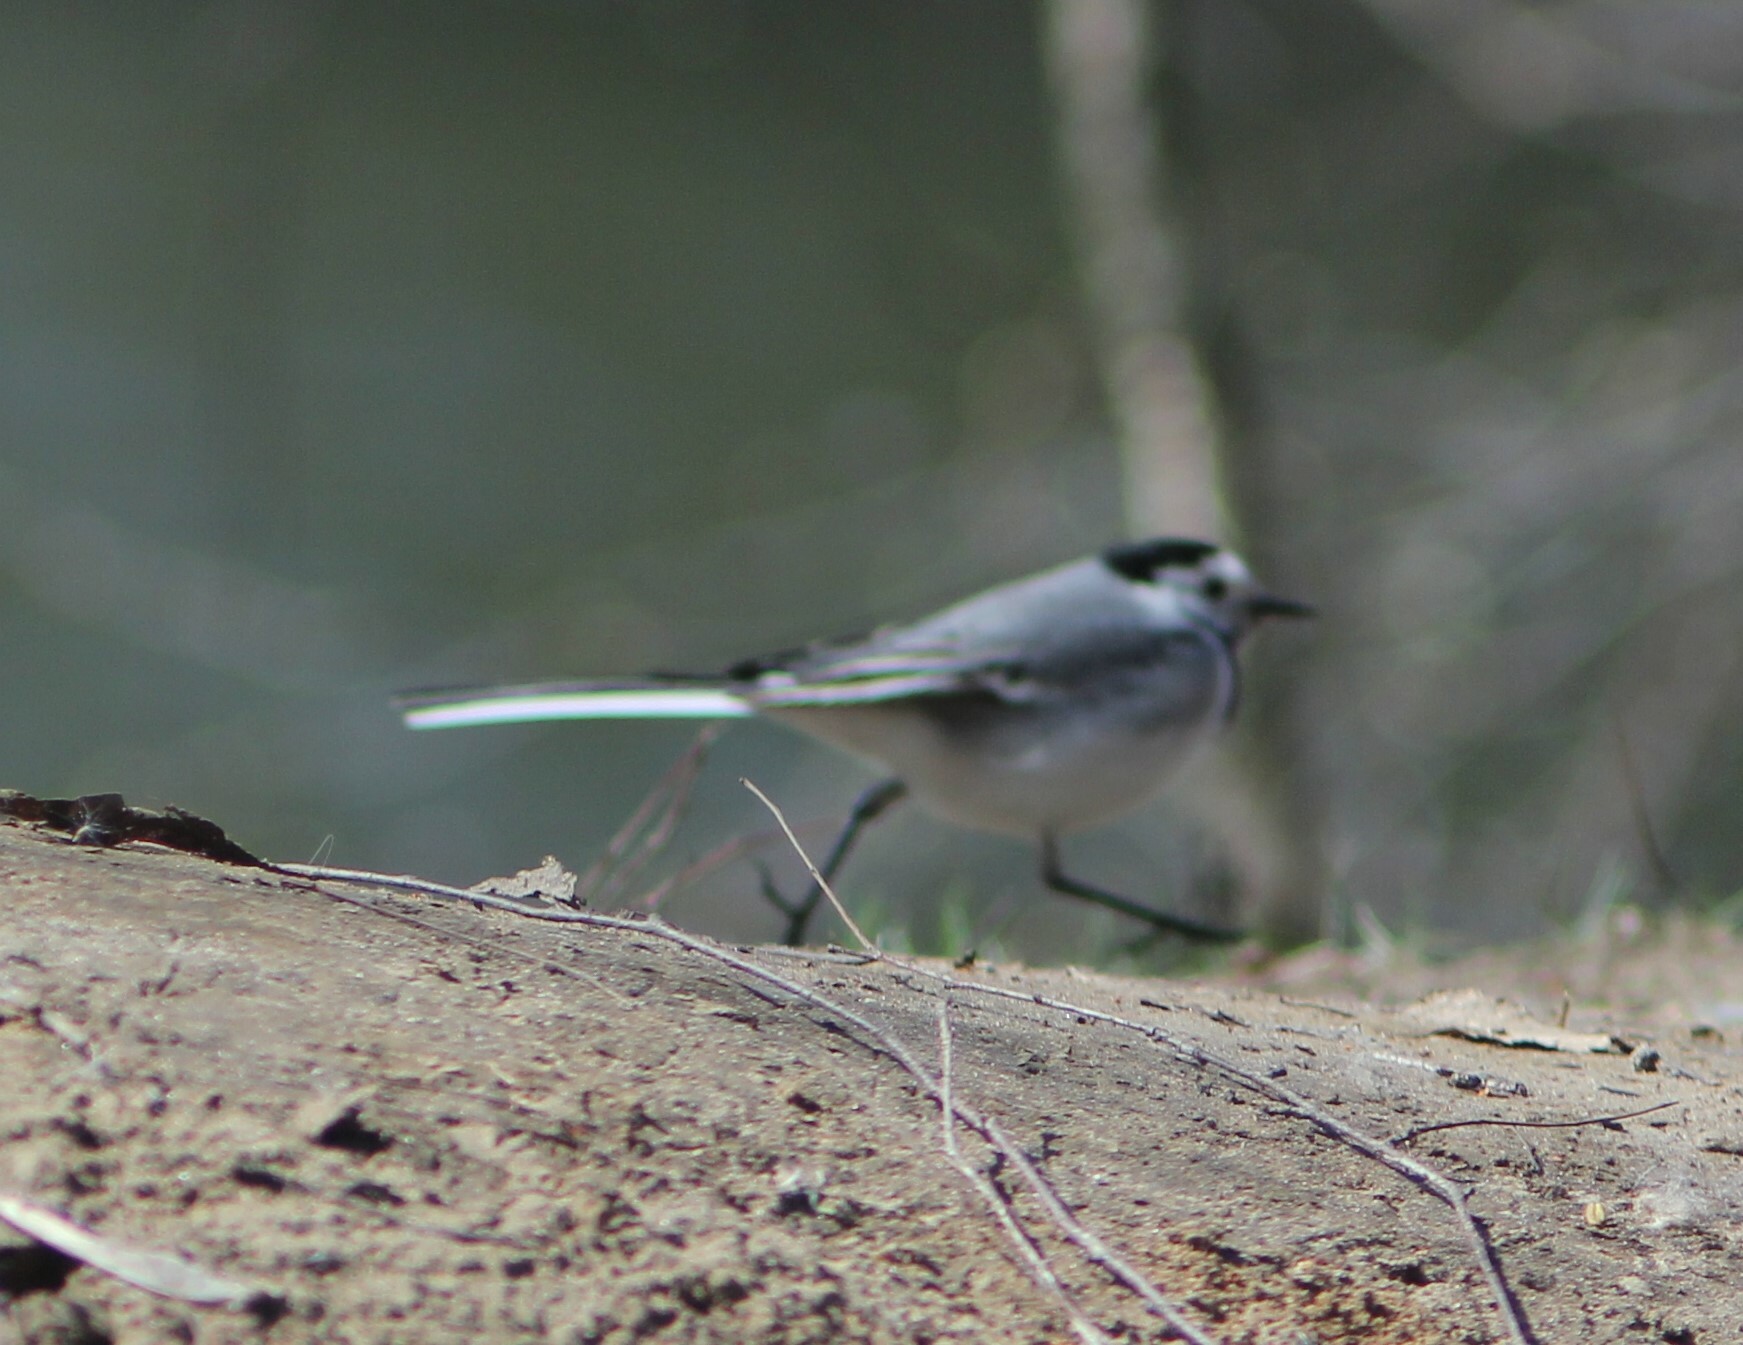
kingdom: Animalia
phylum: Chordata
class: Aves
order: Passeriformes
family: Motacillidae
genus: Motacilla
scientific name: Motacilla alba
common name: White wagtail
